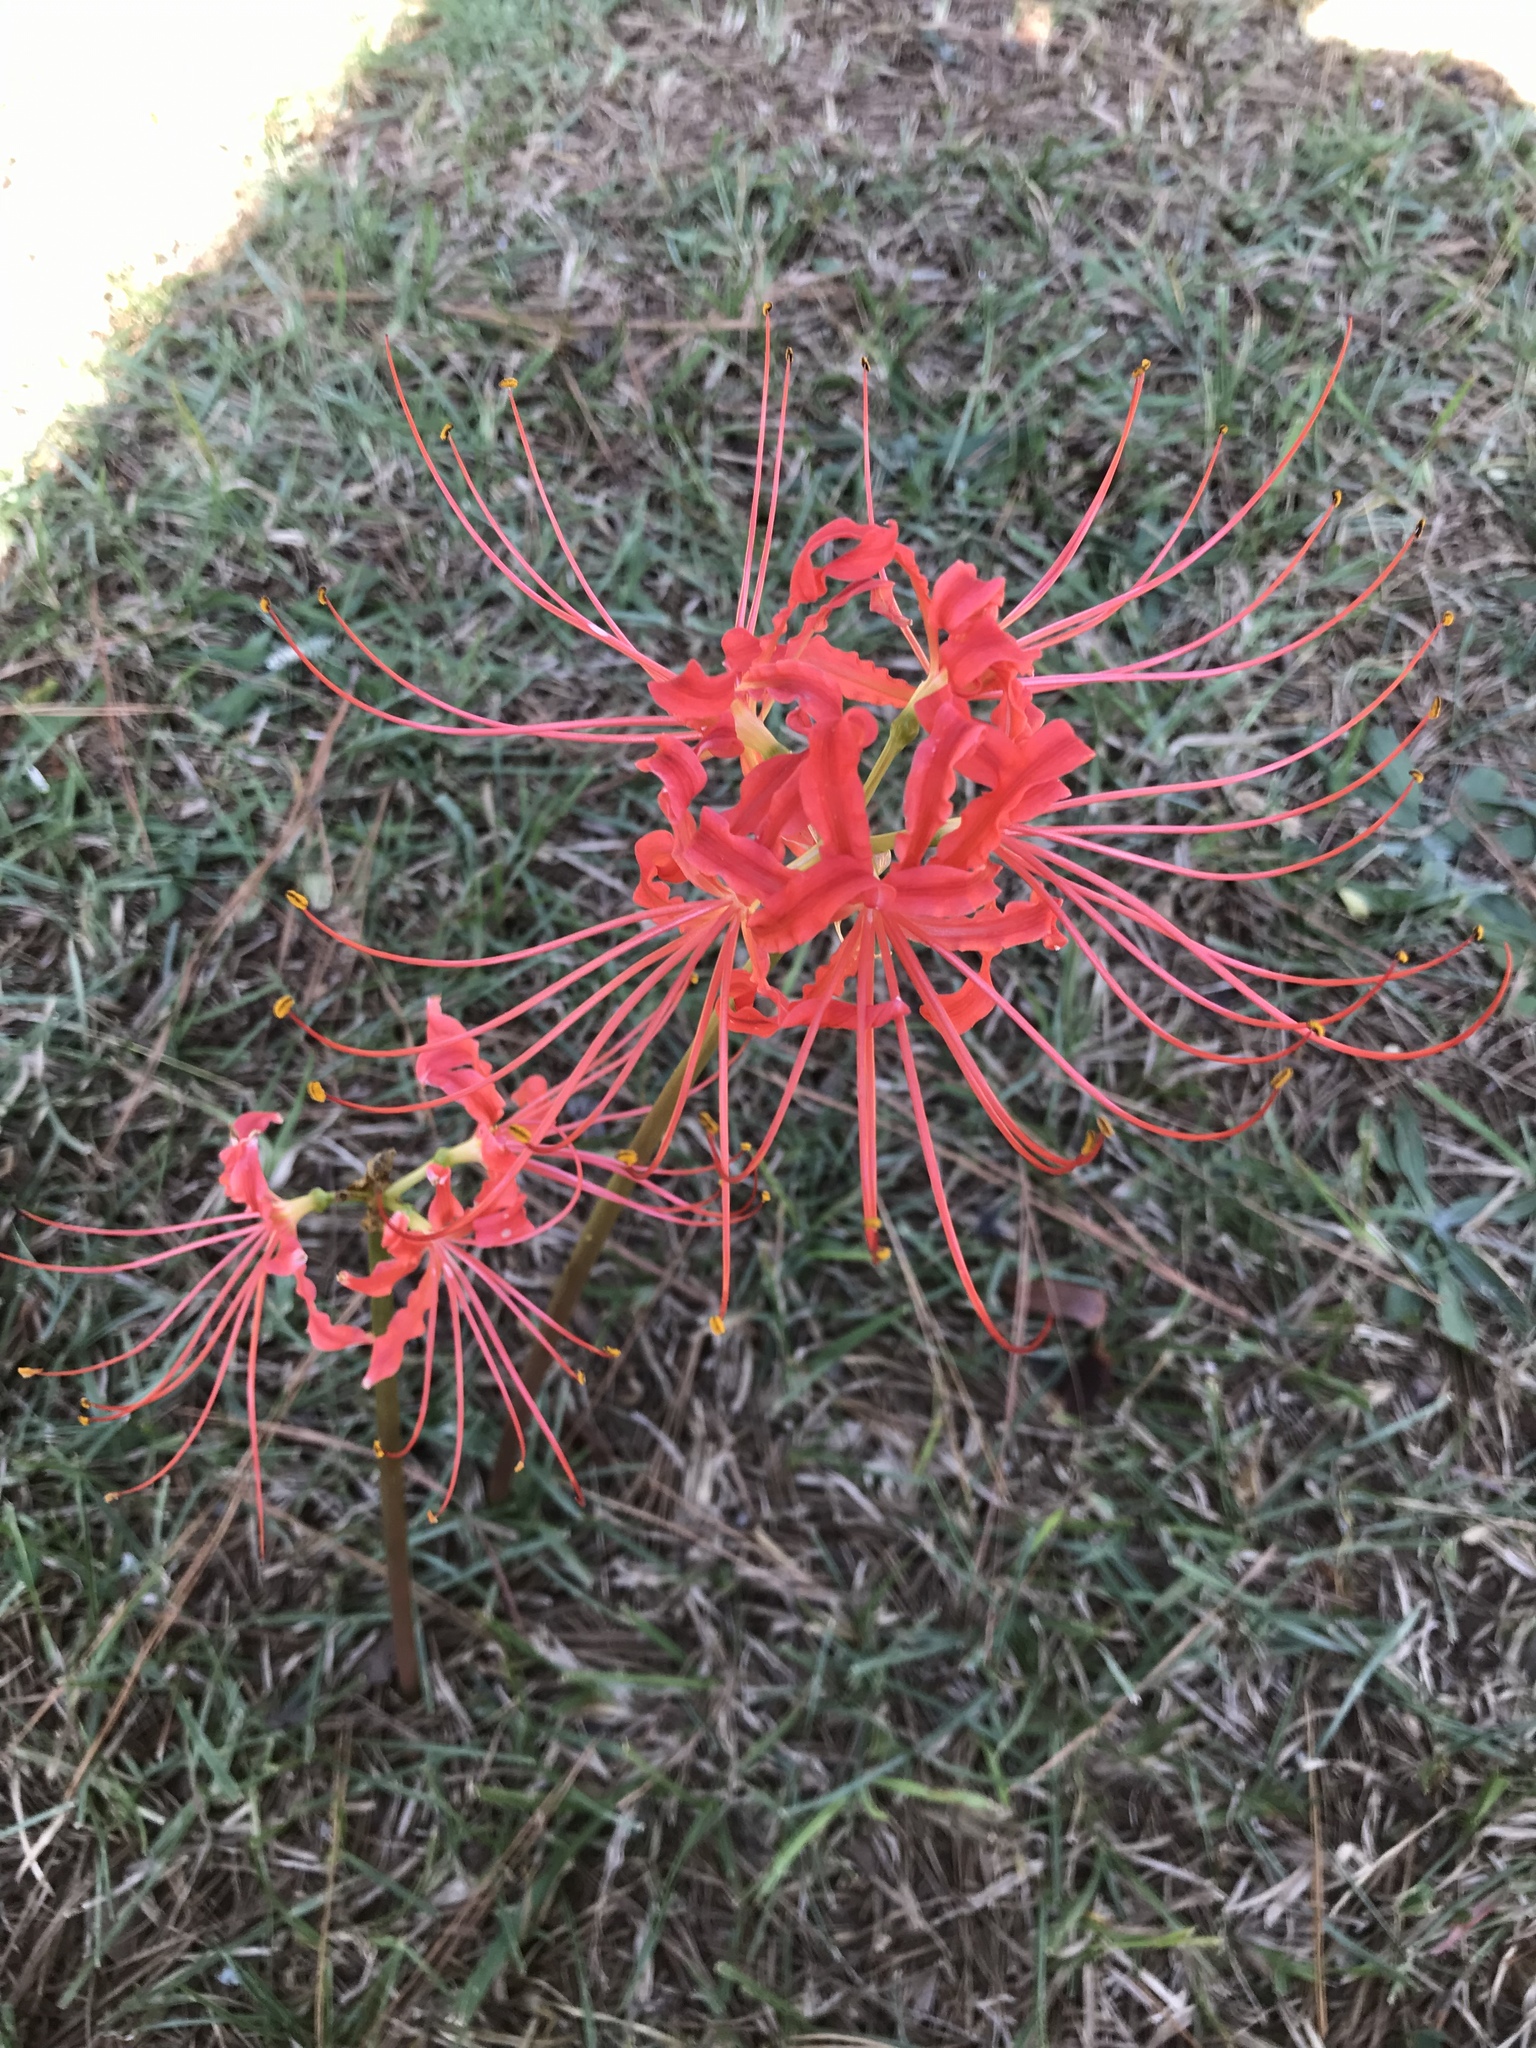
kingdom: Plantae
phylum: Tracheophyta
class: Liliopsida
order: Asparagales
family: Amaryllidaceae
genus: Lycoris
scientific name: Lycoris radiata
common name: Red spider lily
